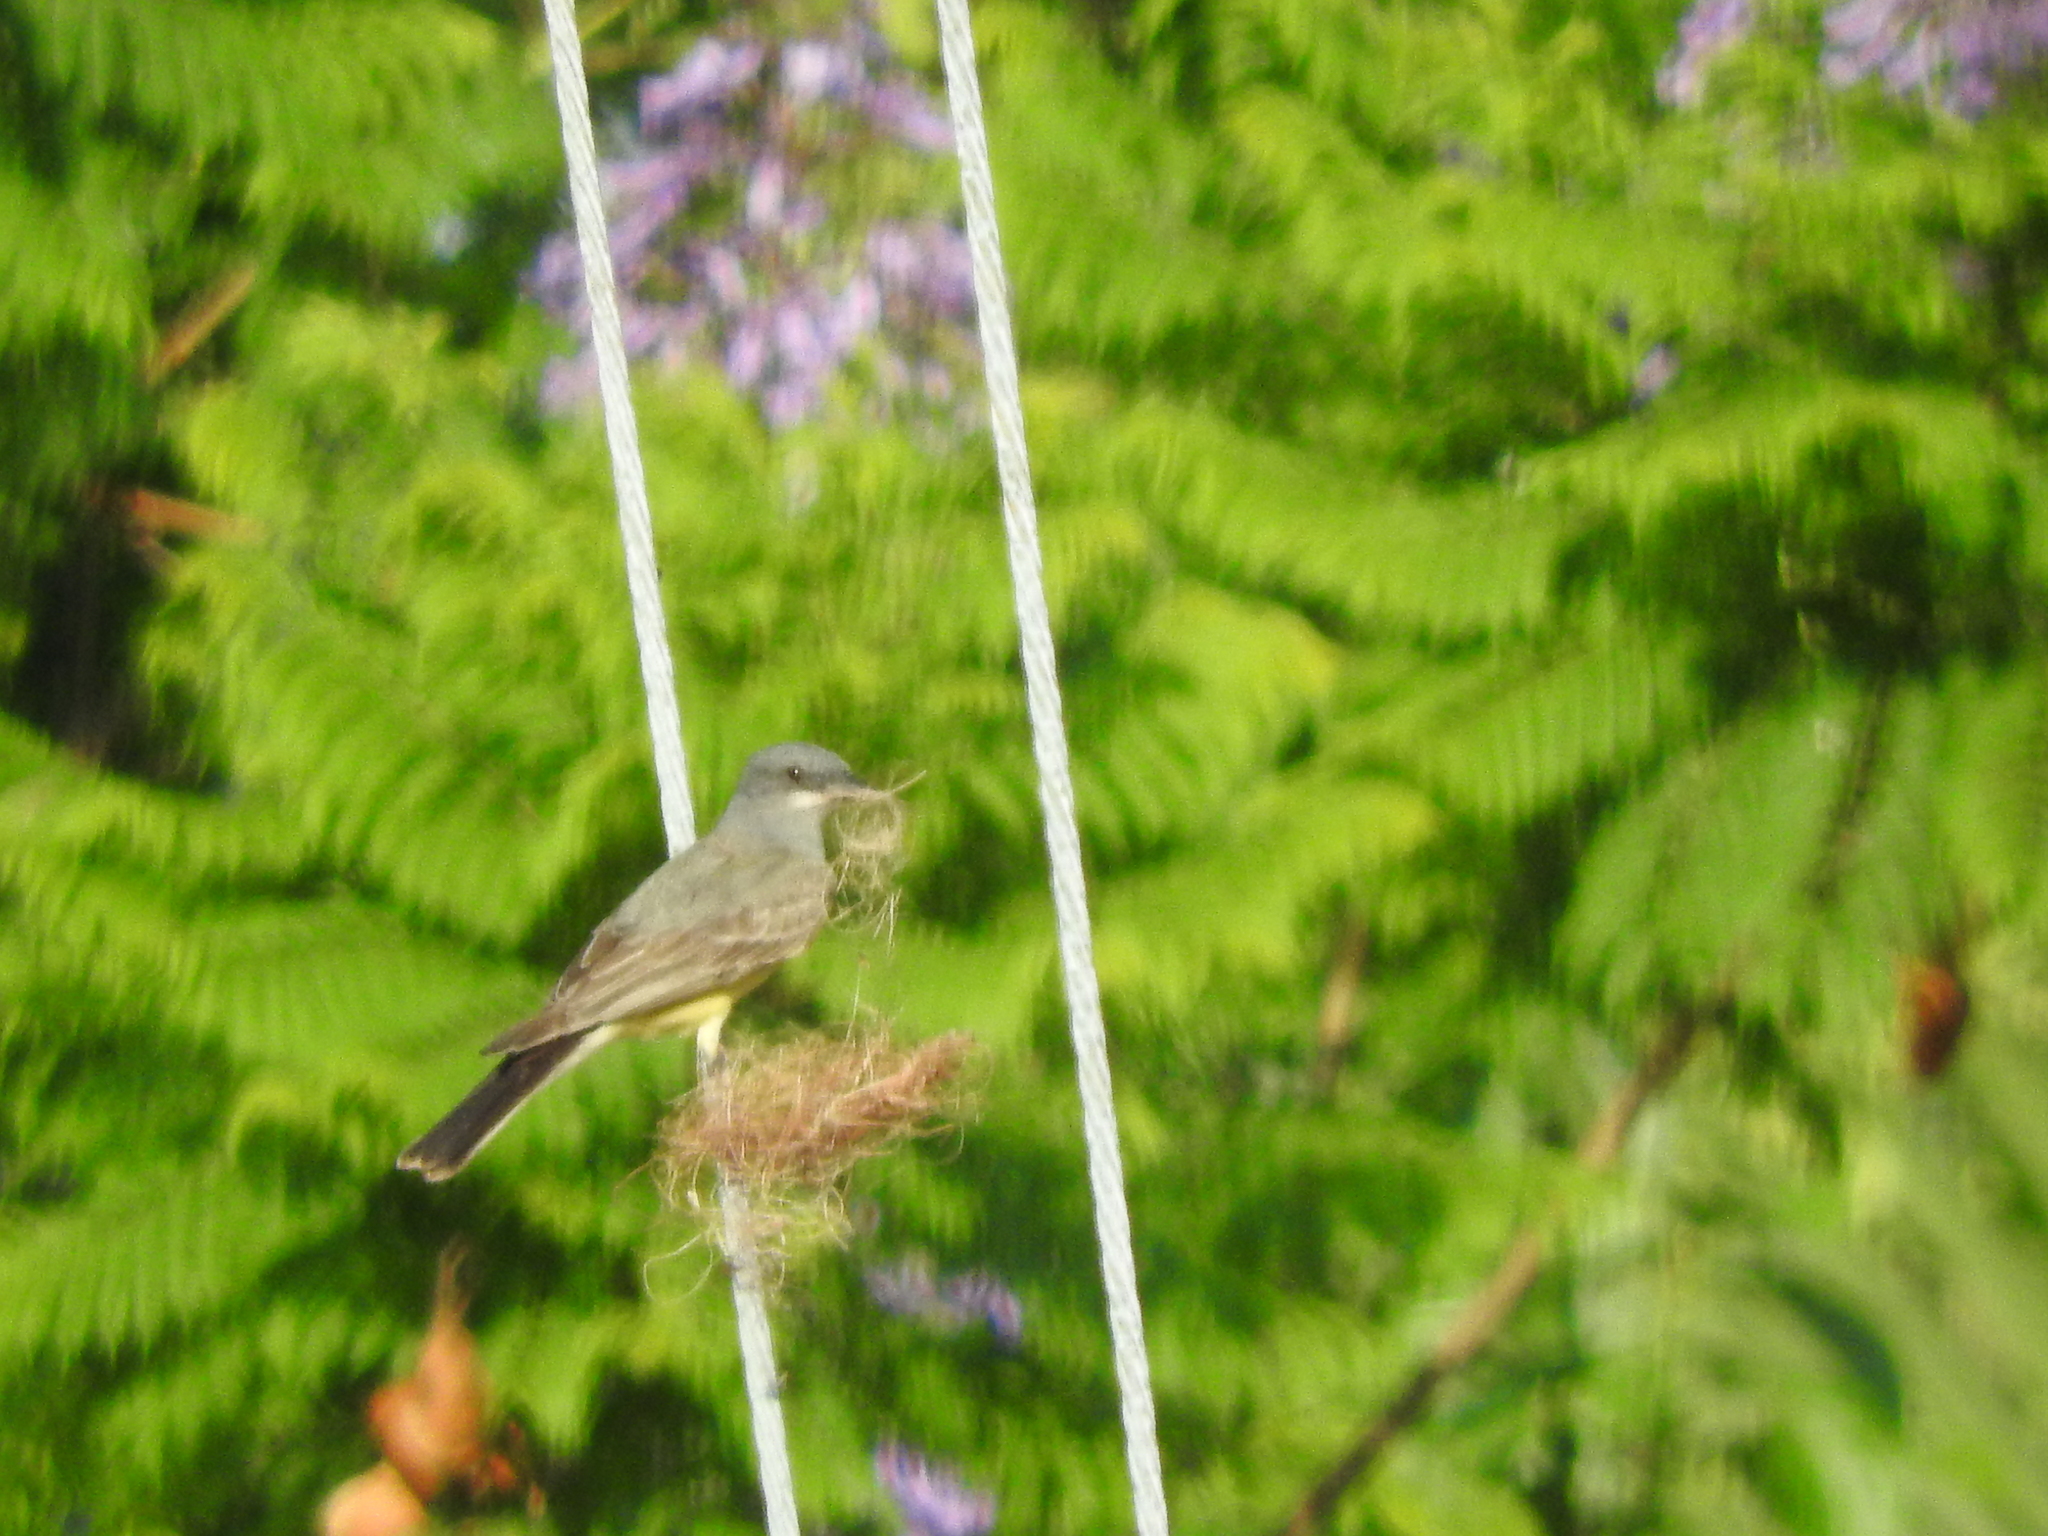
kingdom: Animalia
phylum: Chordata
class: Aves
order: Passeriformes
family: Tyrannidae
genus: Tyrannus
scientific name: Tyrannus vociferans
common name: Cassin's kingbird
